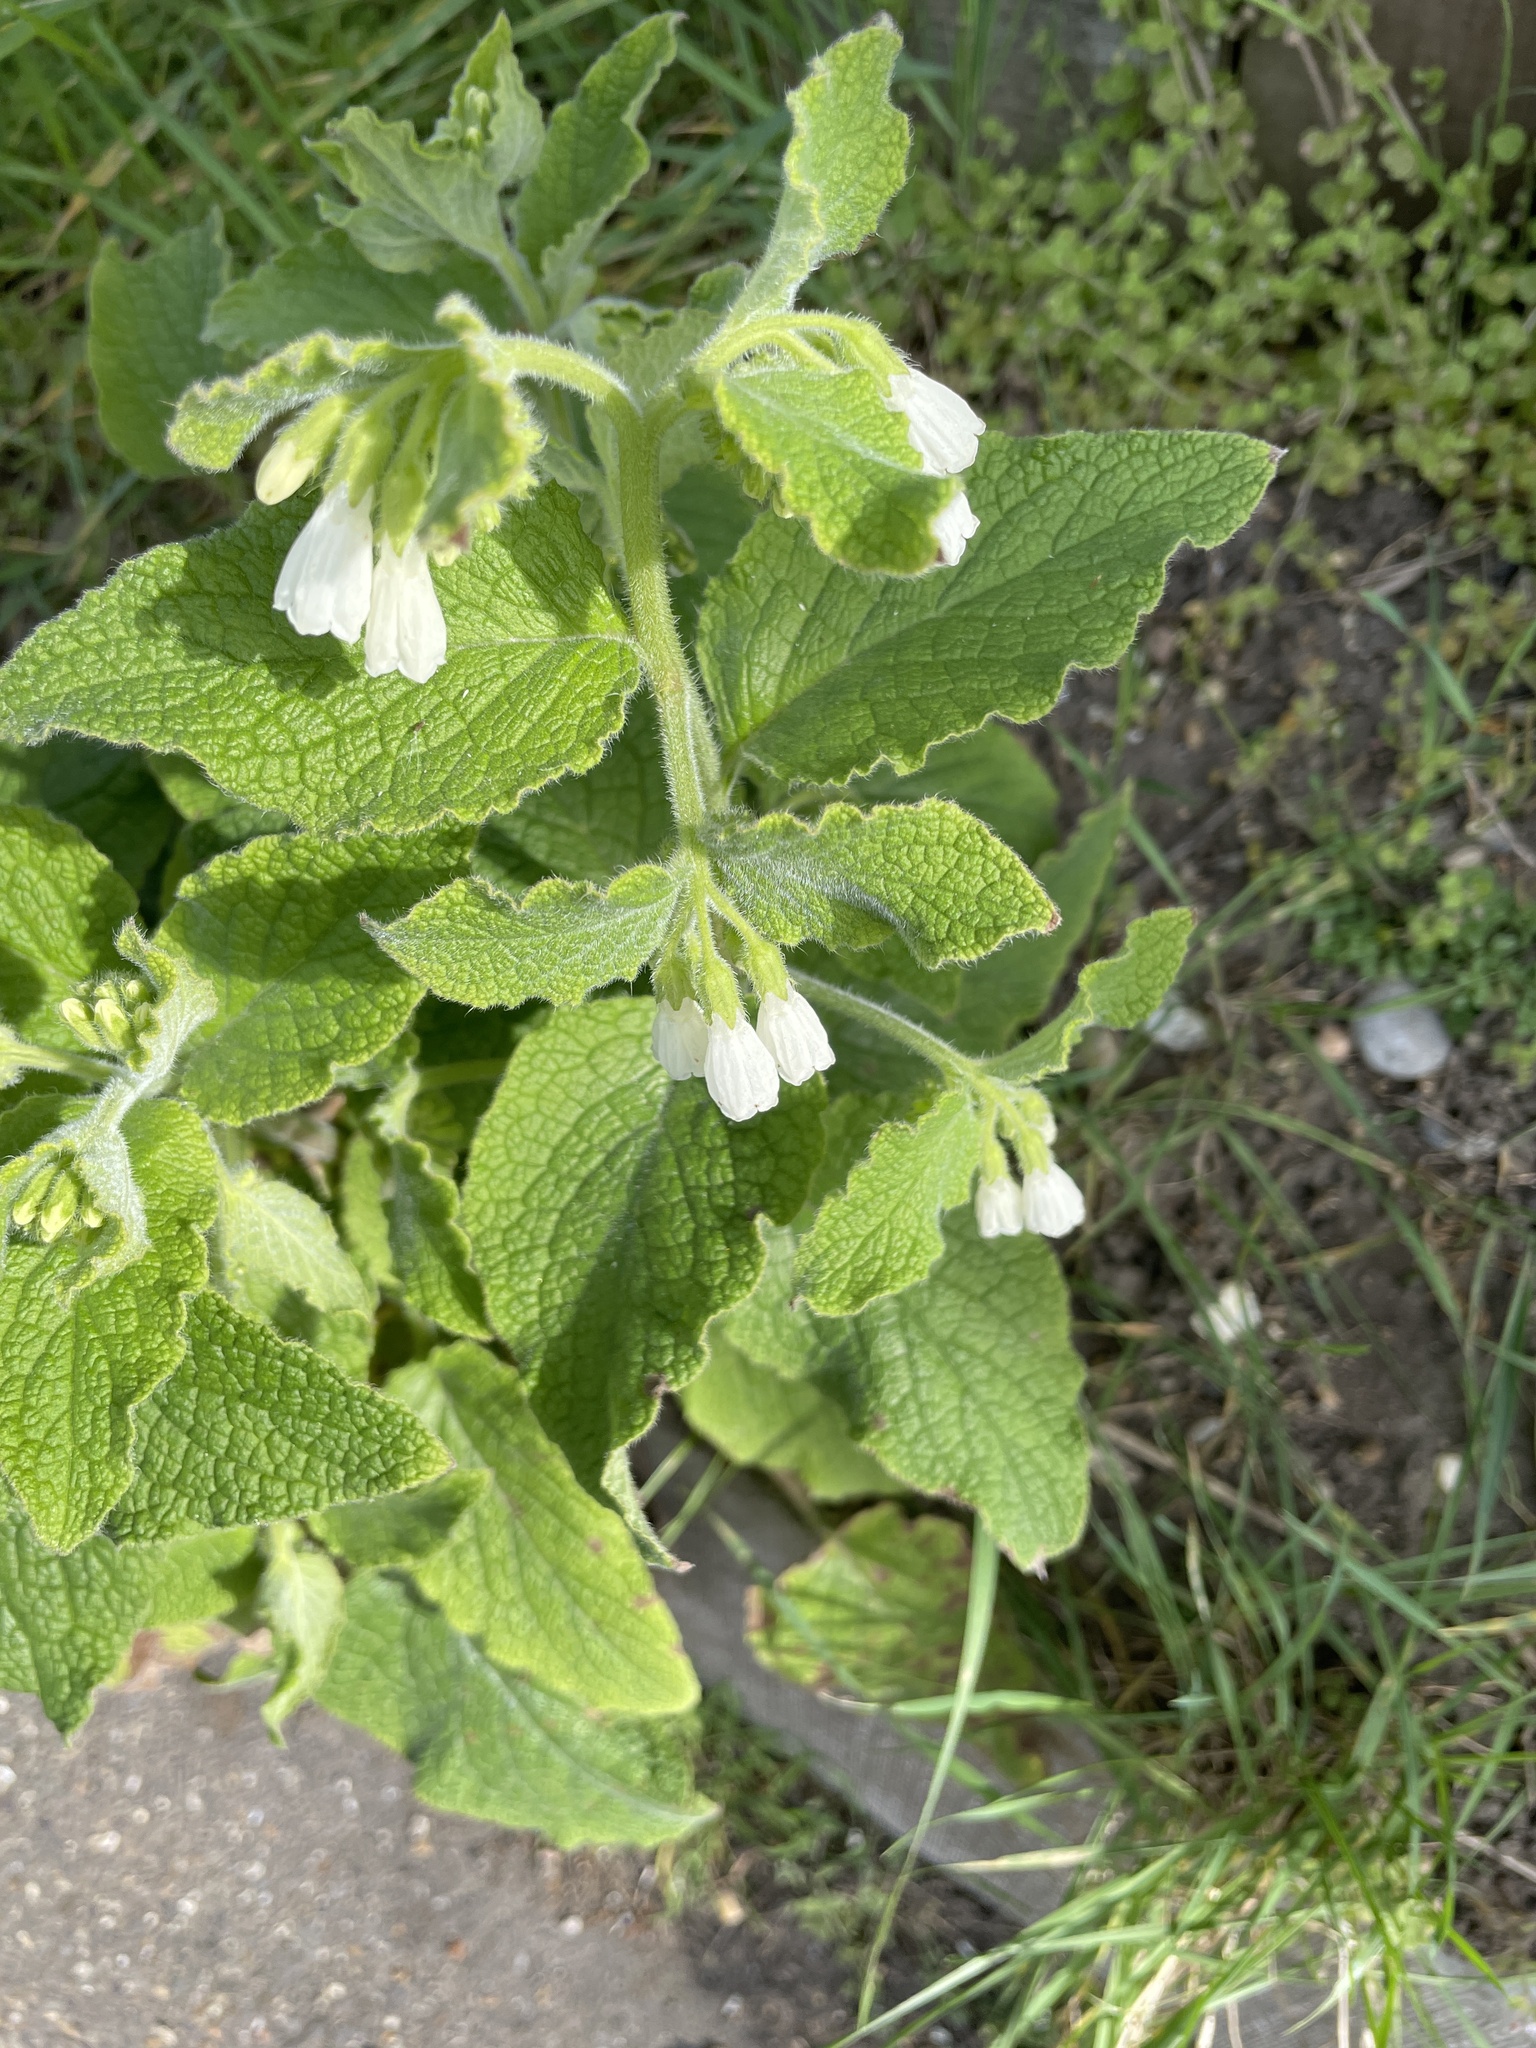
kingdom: Plantae
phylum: Tracheophyta
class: Magnoliopsida
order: Boraginales
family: Boraginaceae
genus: Symphytum
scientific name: Symphytum orientale
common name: White comfrey
